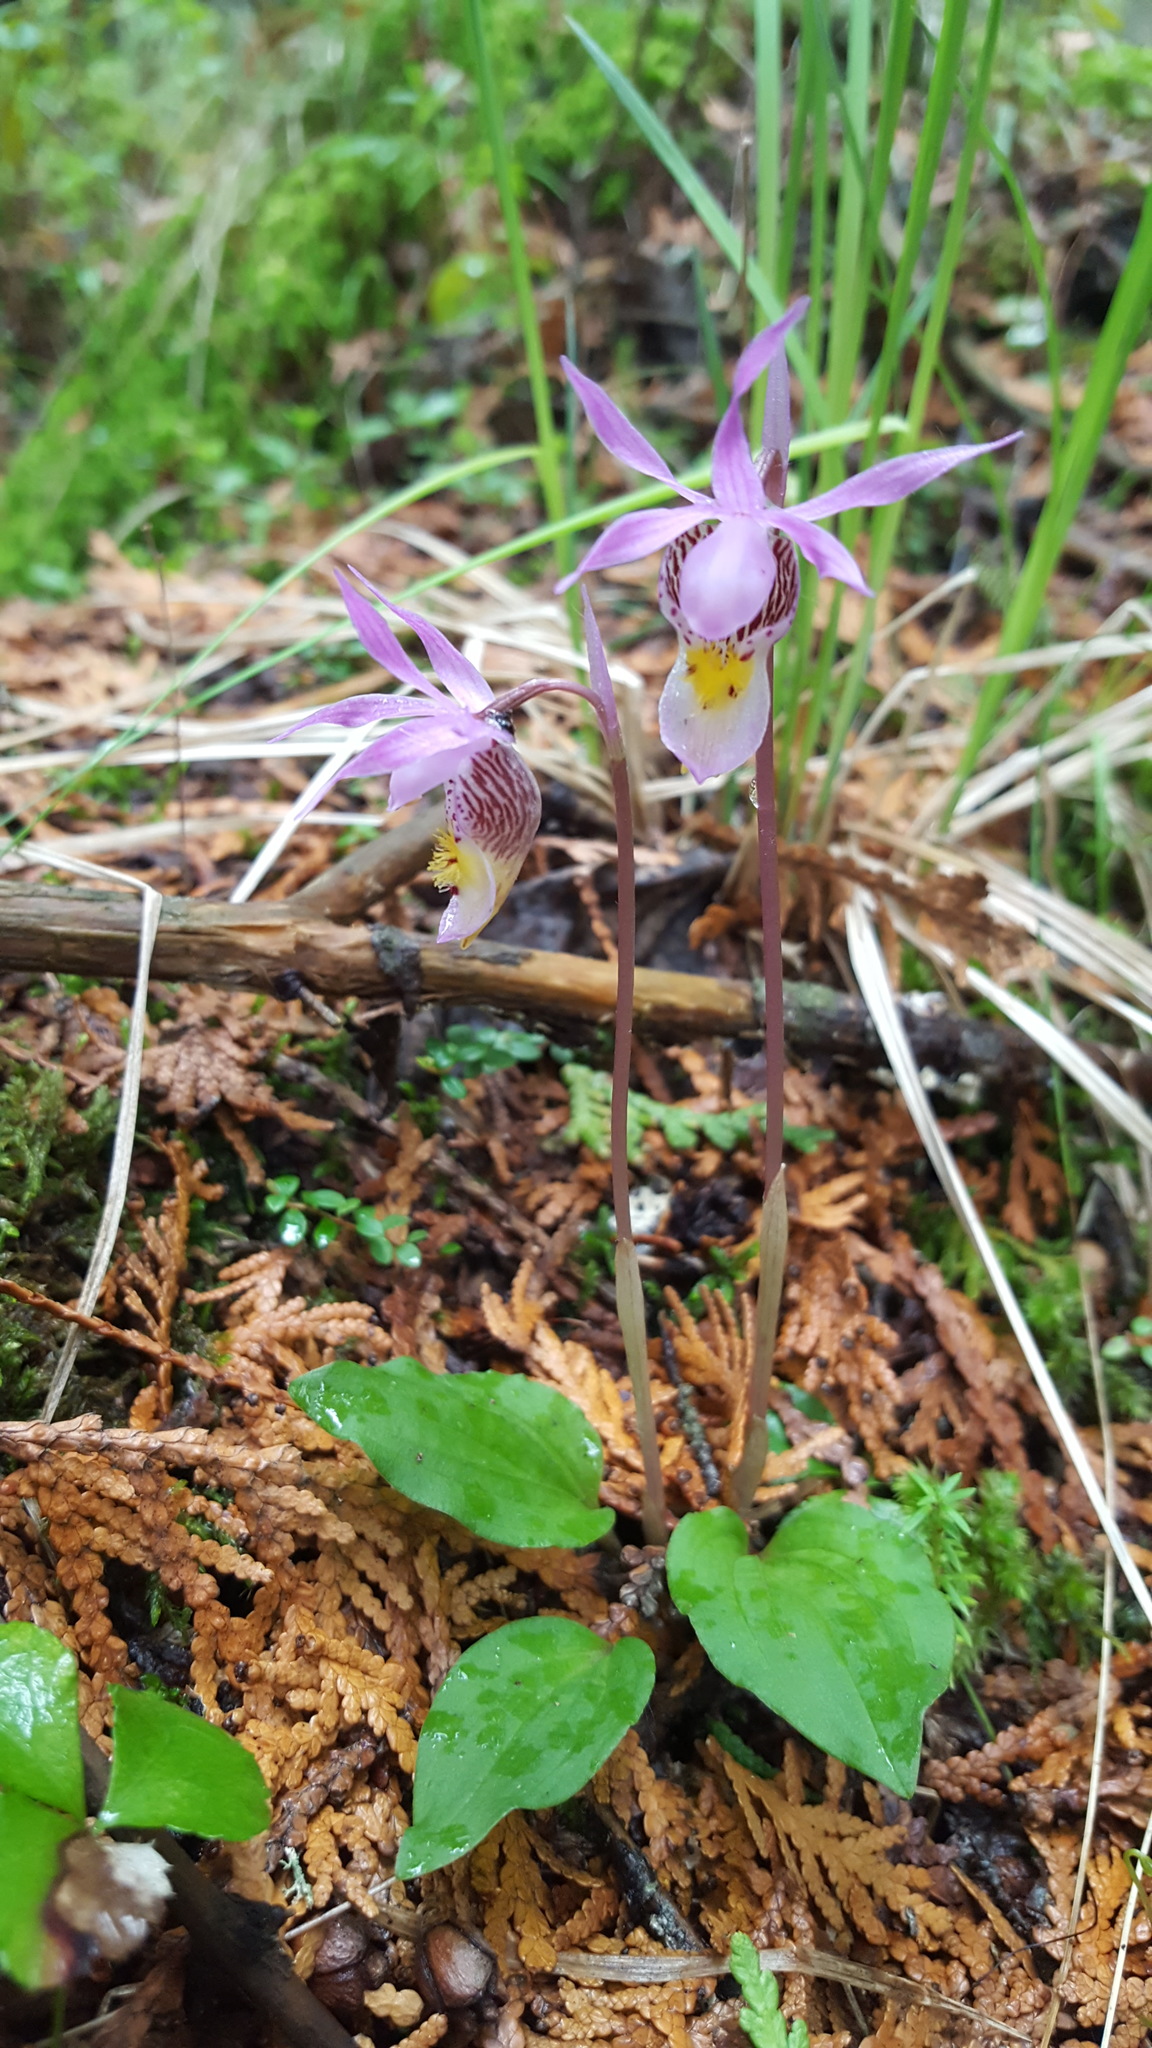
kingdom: Plantae
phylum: Tracheophyta
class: Liliopsida
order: Asparagales
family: Orchidaceae
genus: Calypso
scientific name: Calypso bulbosa
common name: Calypso
